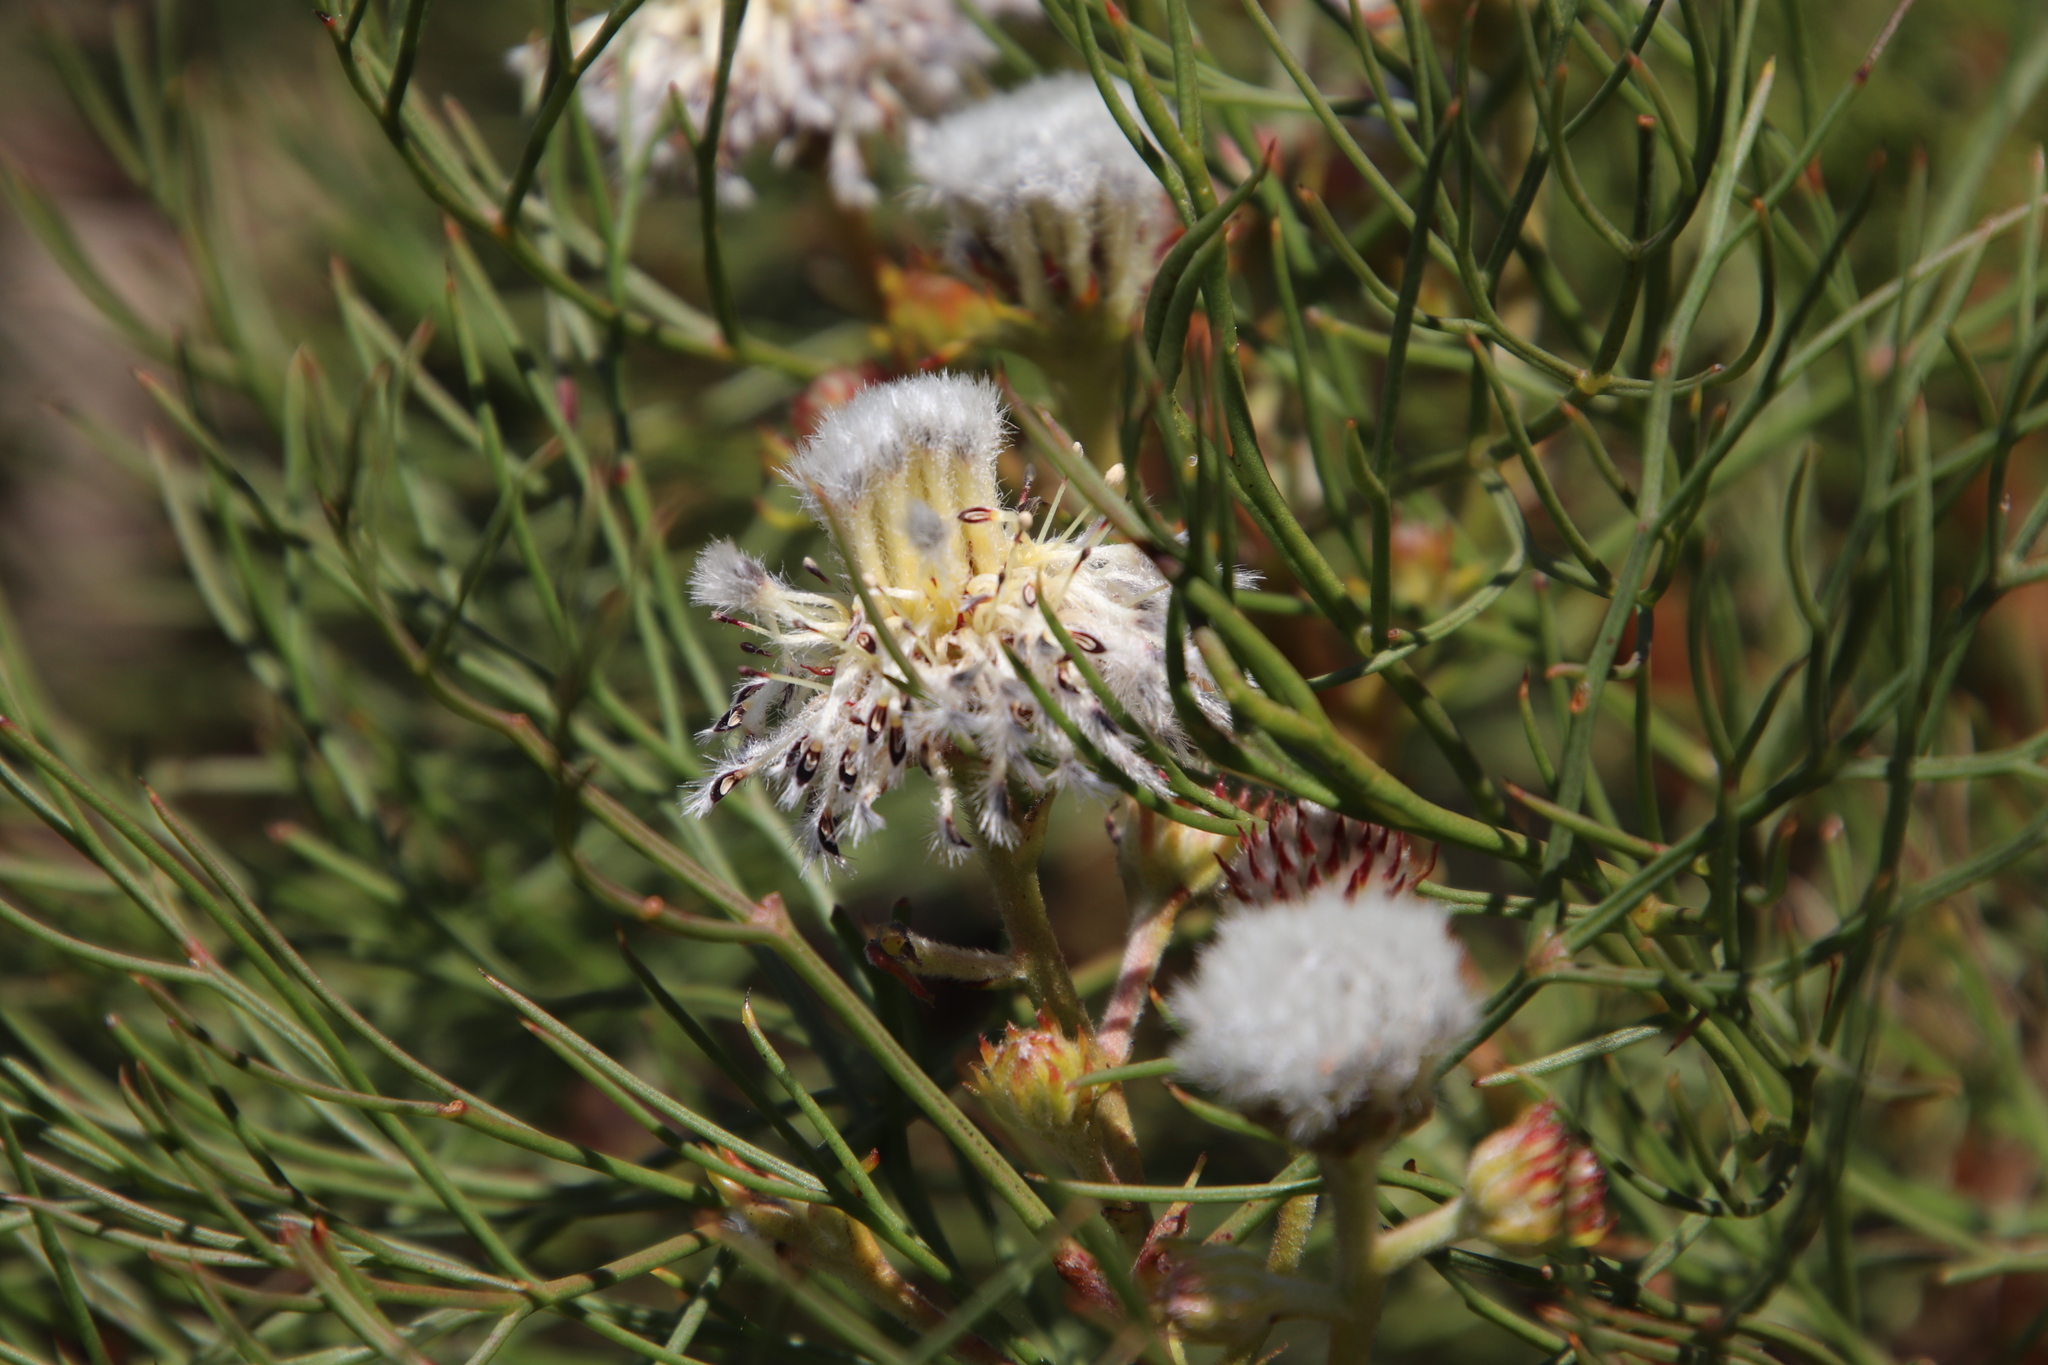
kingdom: Plantae
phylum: Tracheophyta
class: Magnoliopsida
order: Proteales
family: Proteaceae
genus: Serruria
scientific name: Serruria kraussii
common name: Snowball spiderhead
